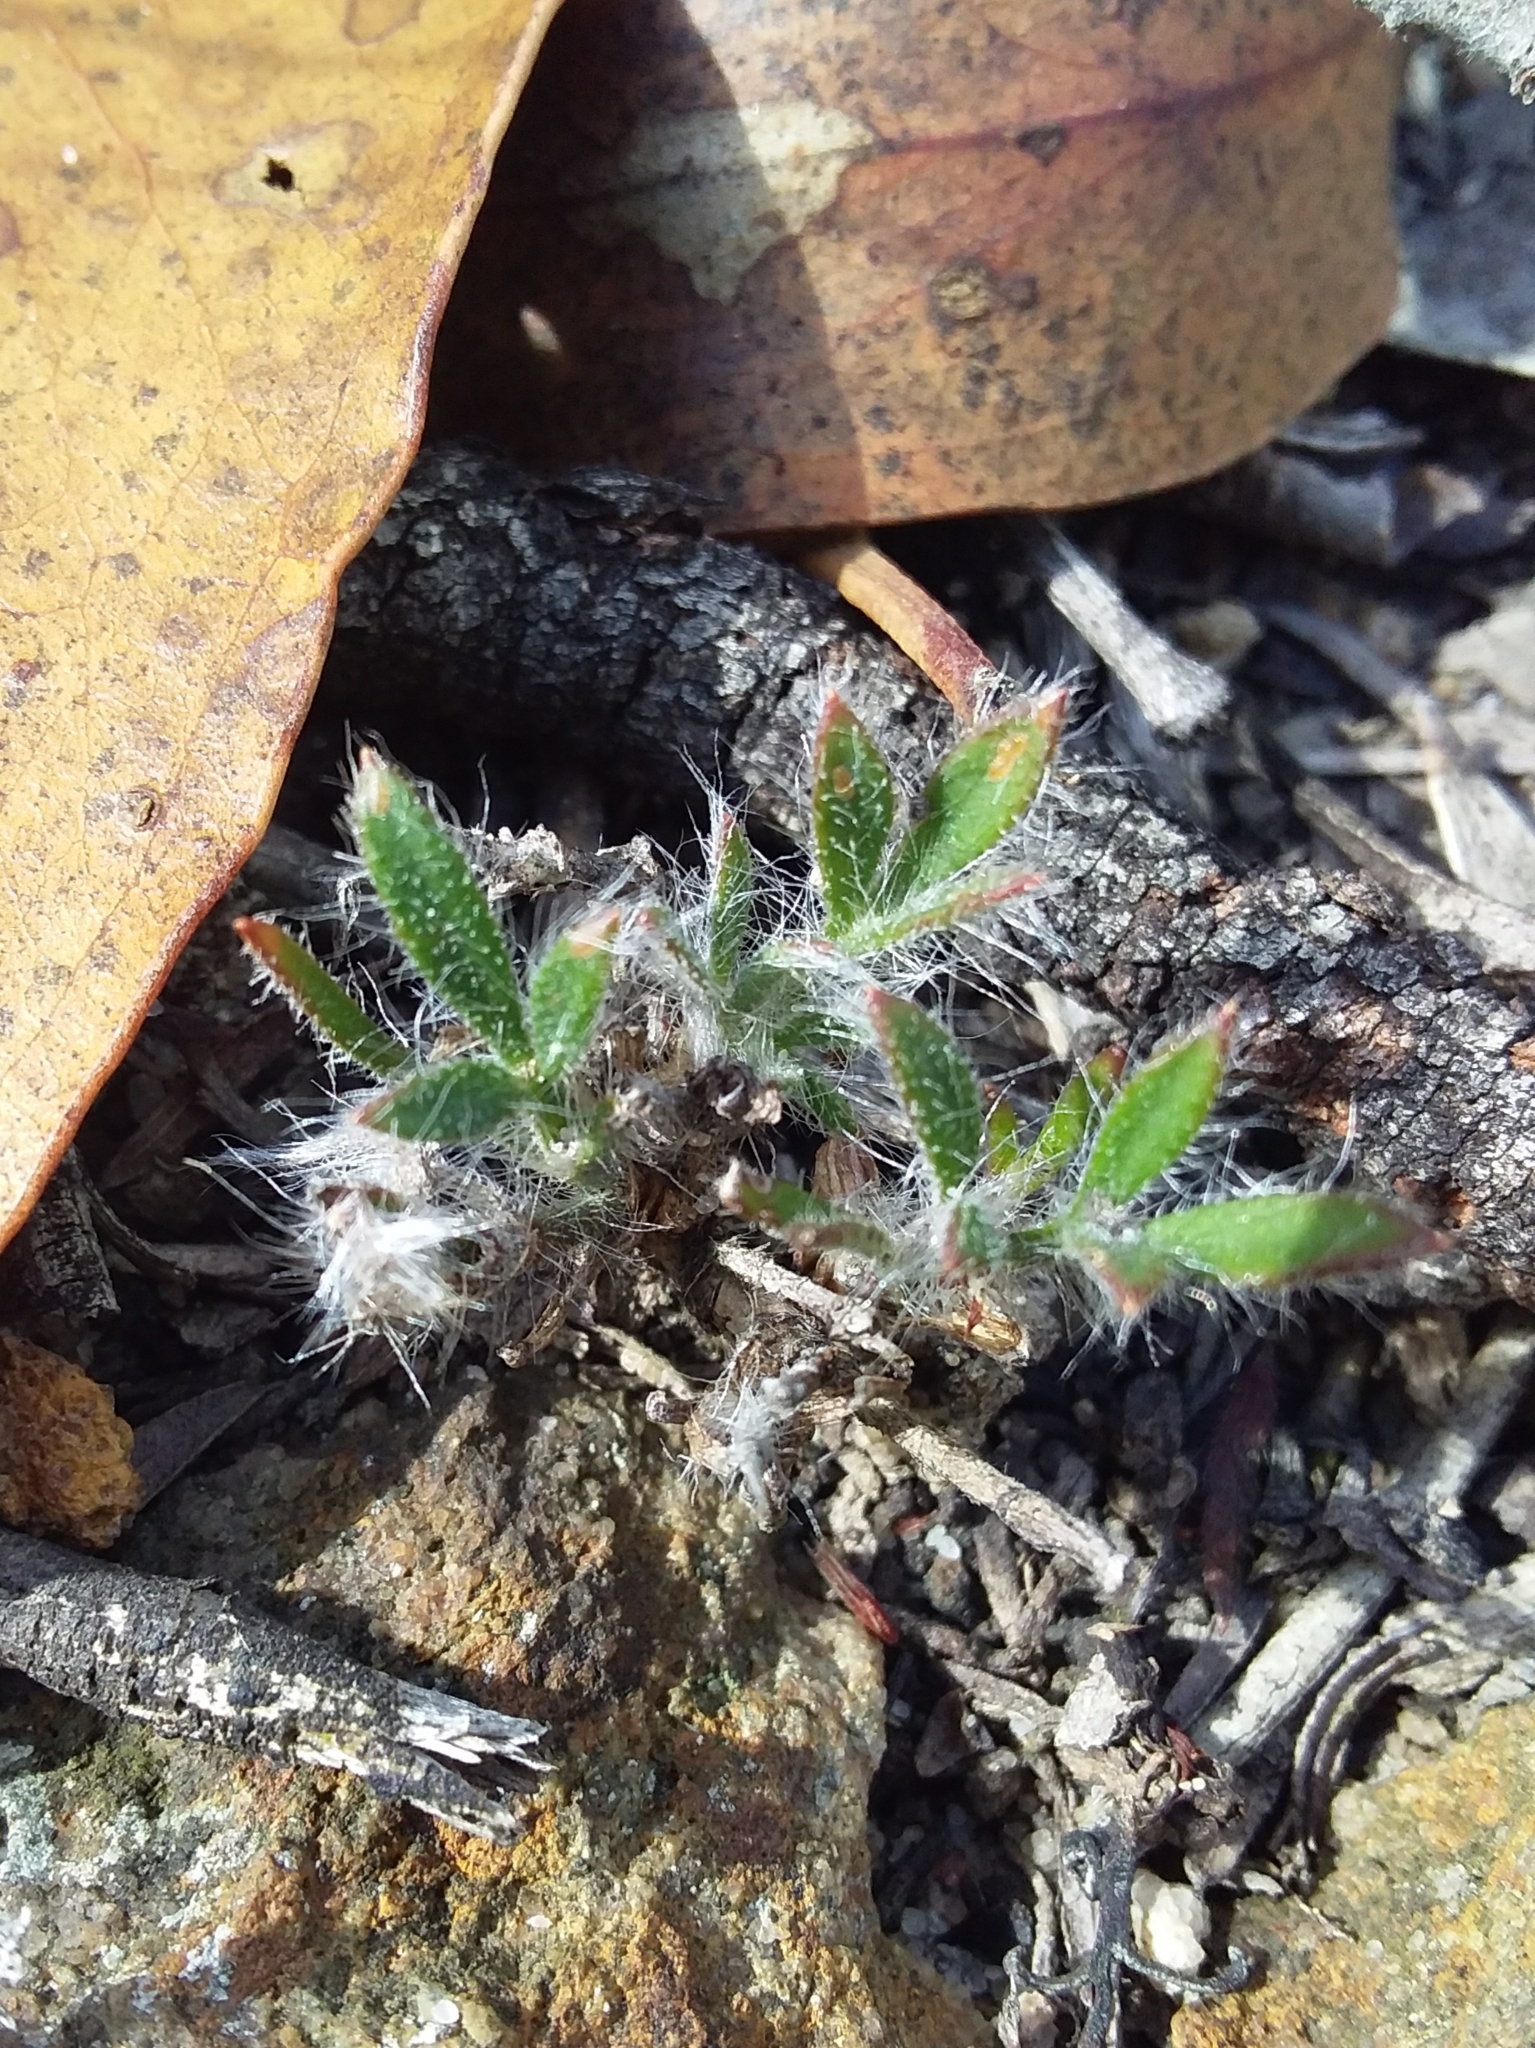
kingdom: Plantae
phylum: Tracheophyta
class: Magnoliopsida
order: Apiales
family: Apiaceae
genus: Xanthosia
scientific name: Xanthosia huegelii
